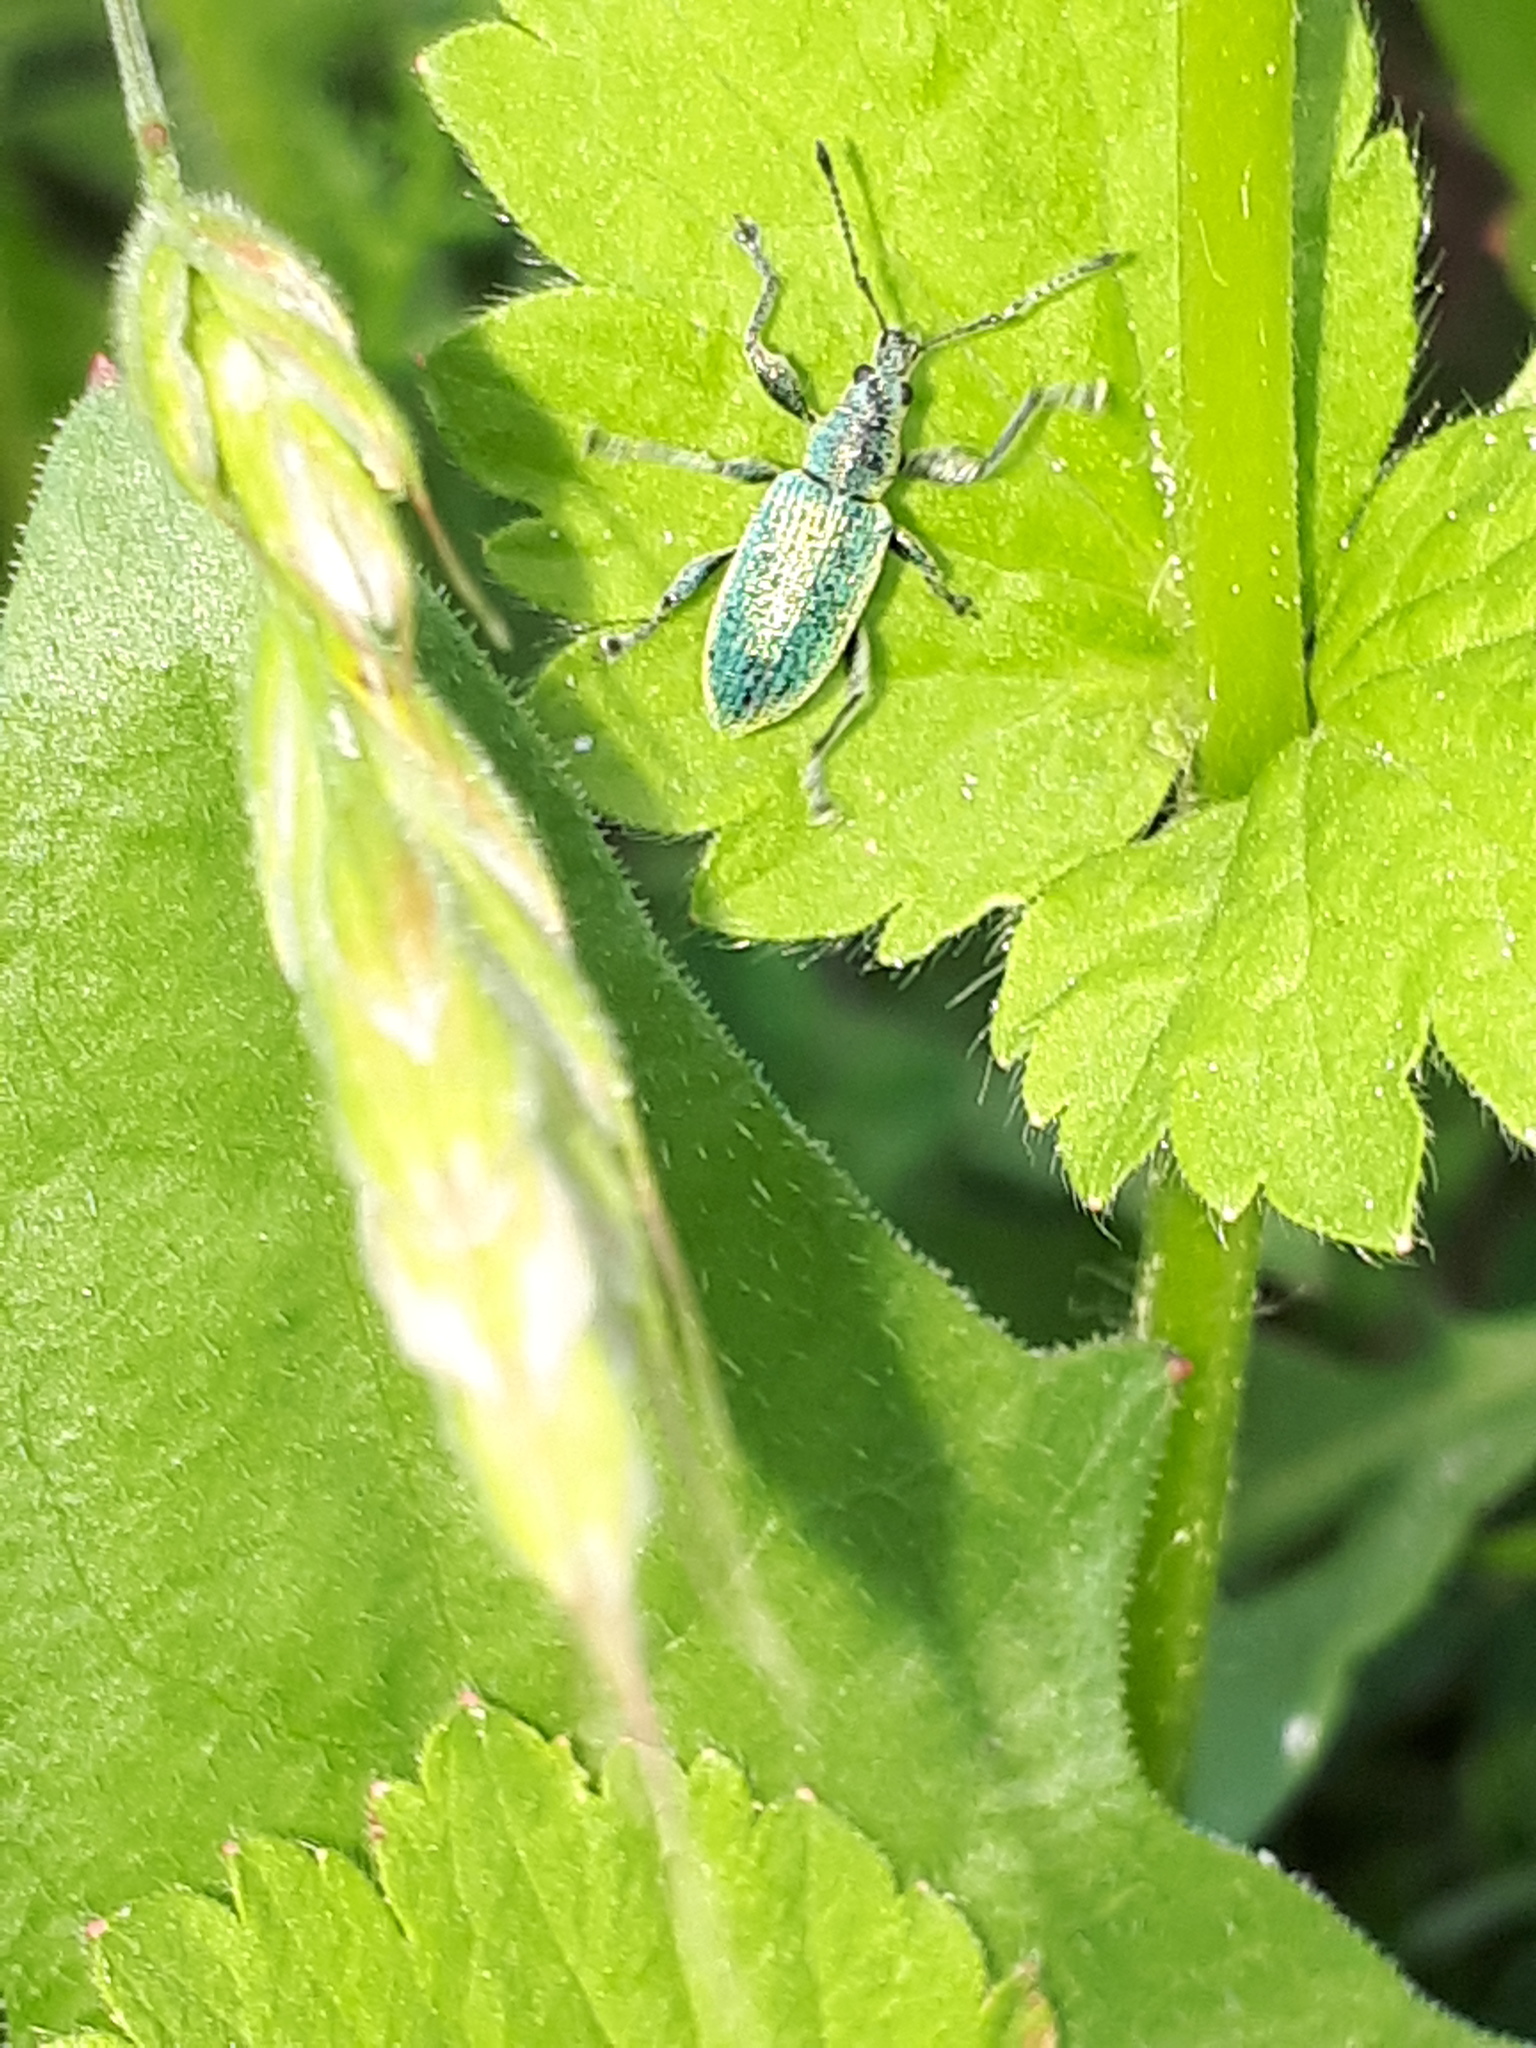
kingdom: Animalia
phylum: Arthropoda
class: Insecta
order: Coleoptera
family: Curculionidae
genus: Phyllobius
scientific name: Phyllobius pomaceus
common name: Green nettle weevil
